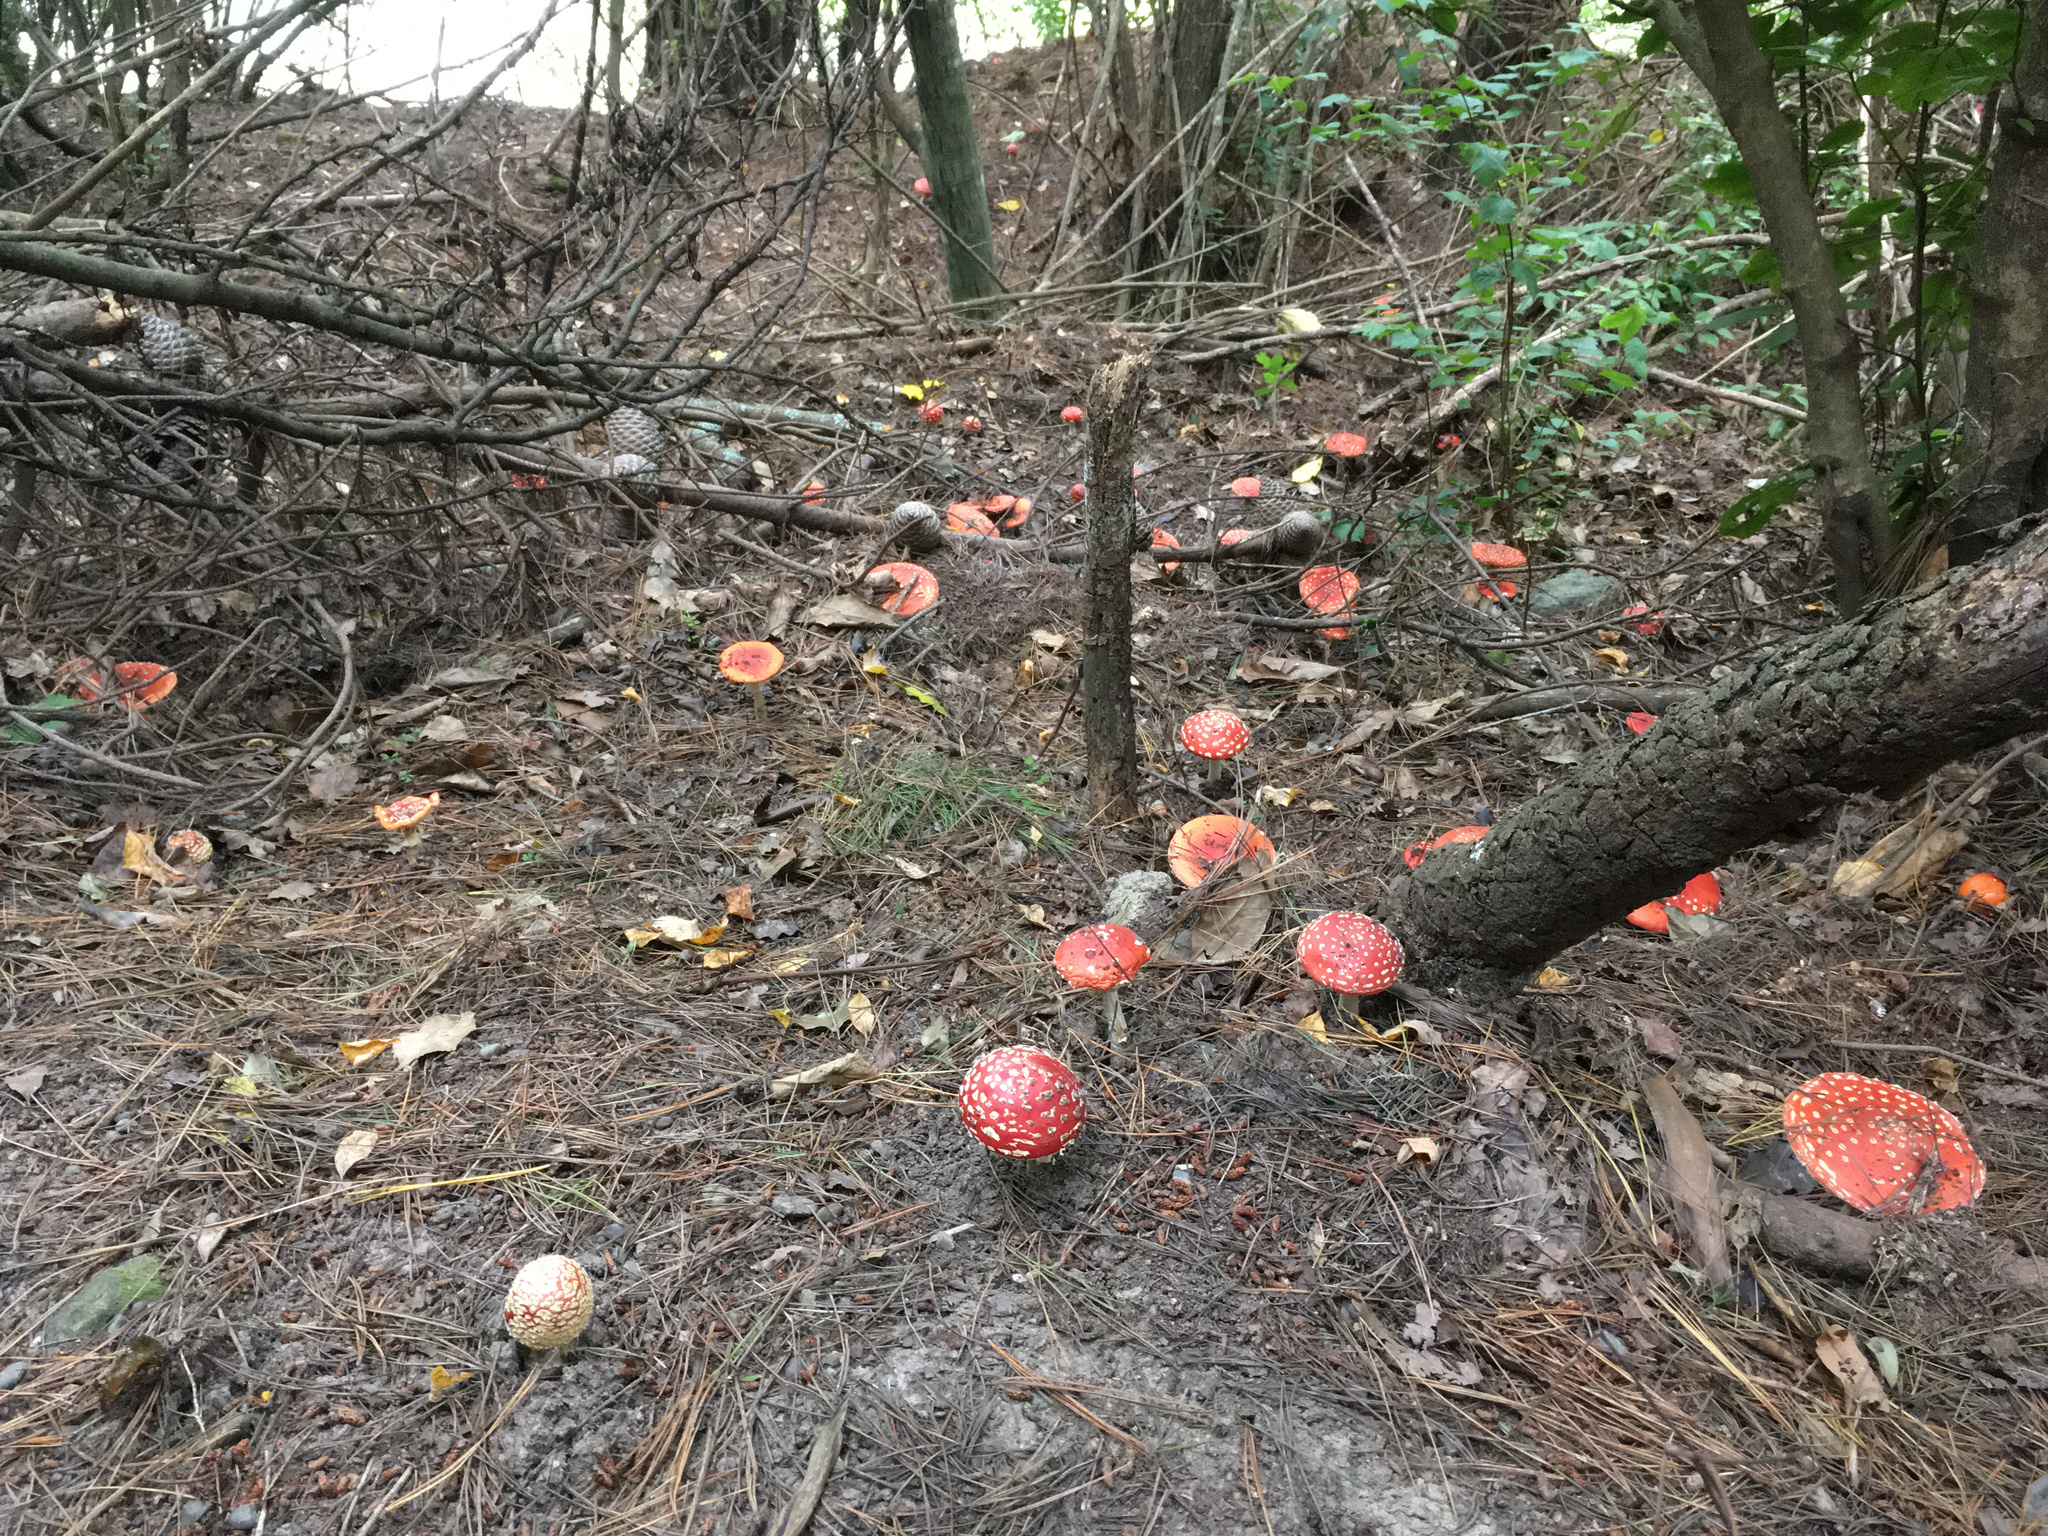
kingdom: Fungi
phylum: Basidiomycota
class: Agaricomycetes
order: Agaricales
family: Amanitaceae
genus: Amanita
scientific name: Amanita muscaria
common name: Fly agaric
